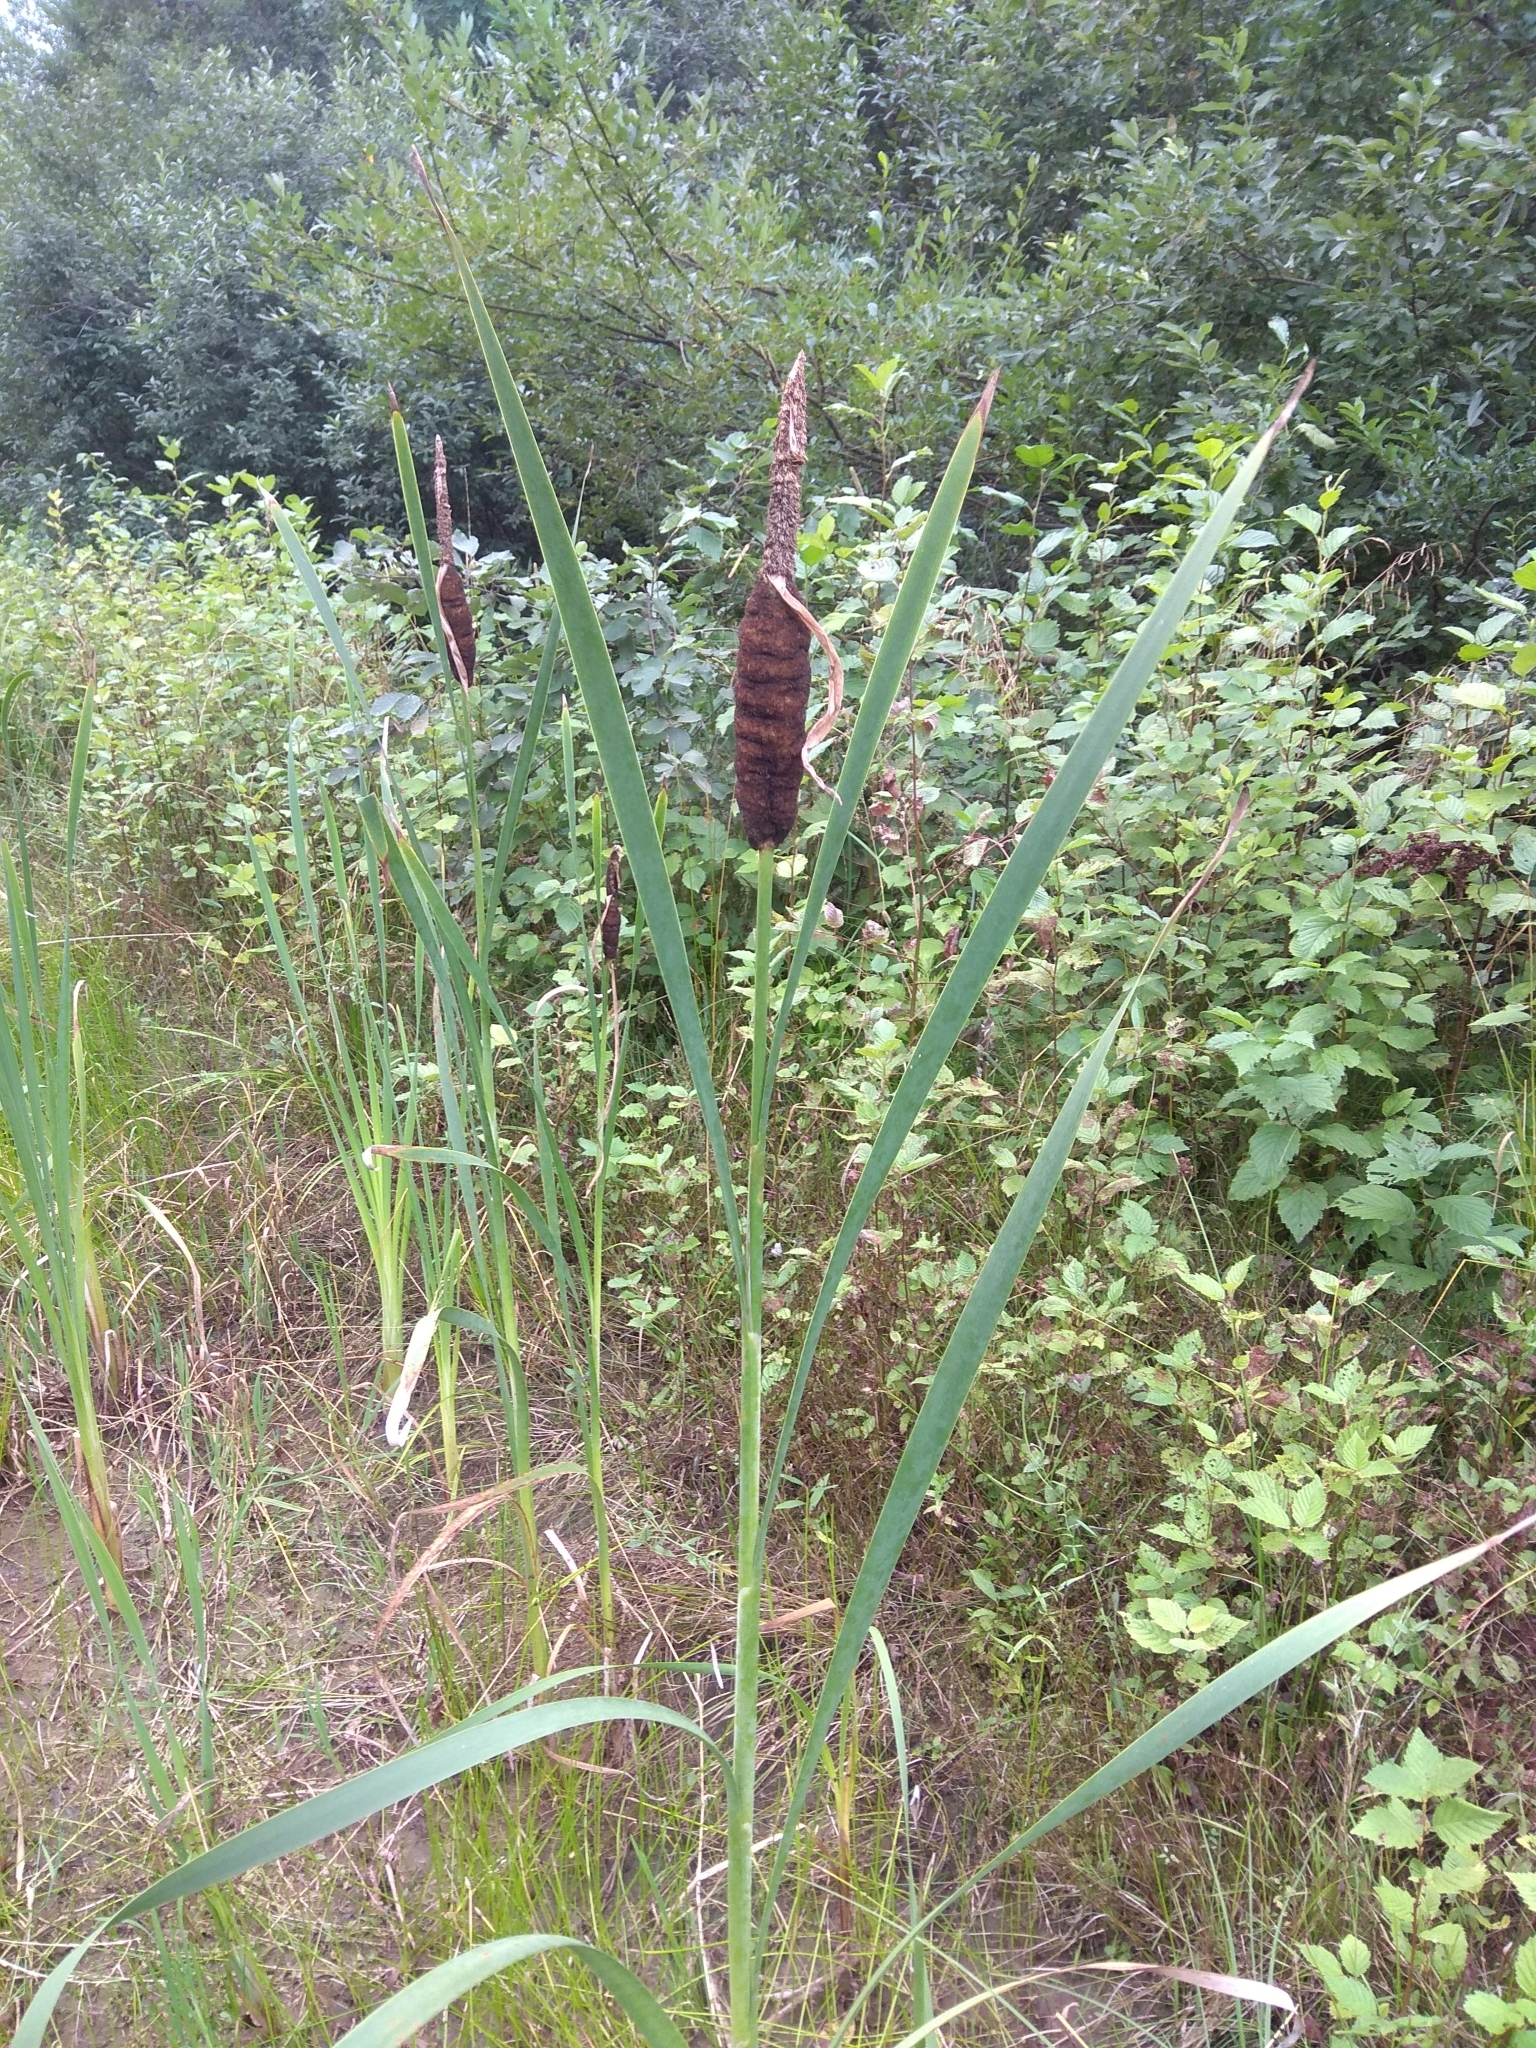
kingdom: Plantae
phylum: Tracheophyta
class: Liliopsida
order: Poales
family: Typhaceae
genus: Typha
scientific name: Typha latifolia
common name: Broadleaf cattail
